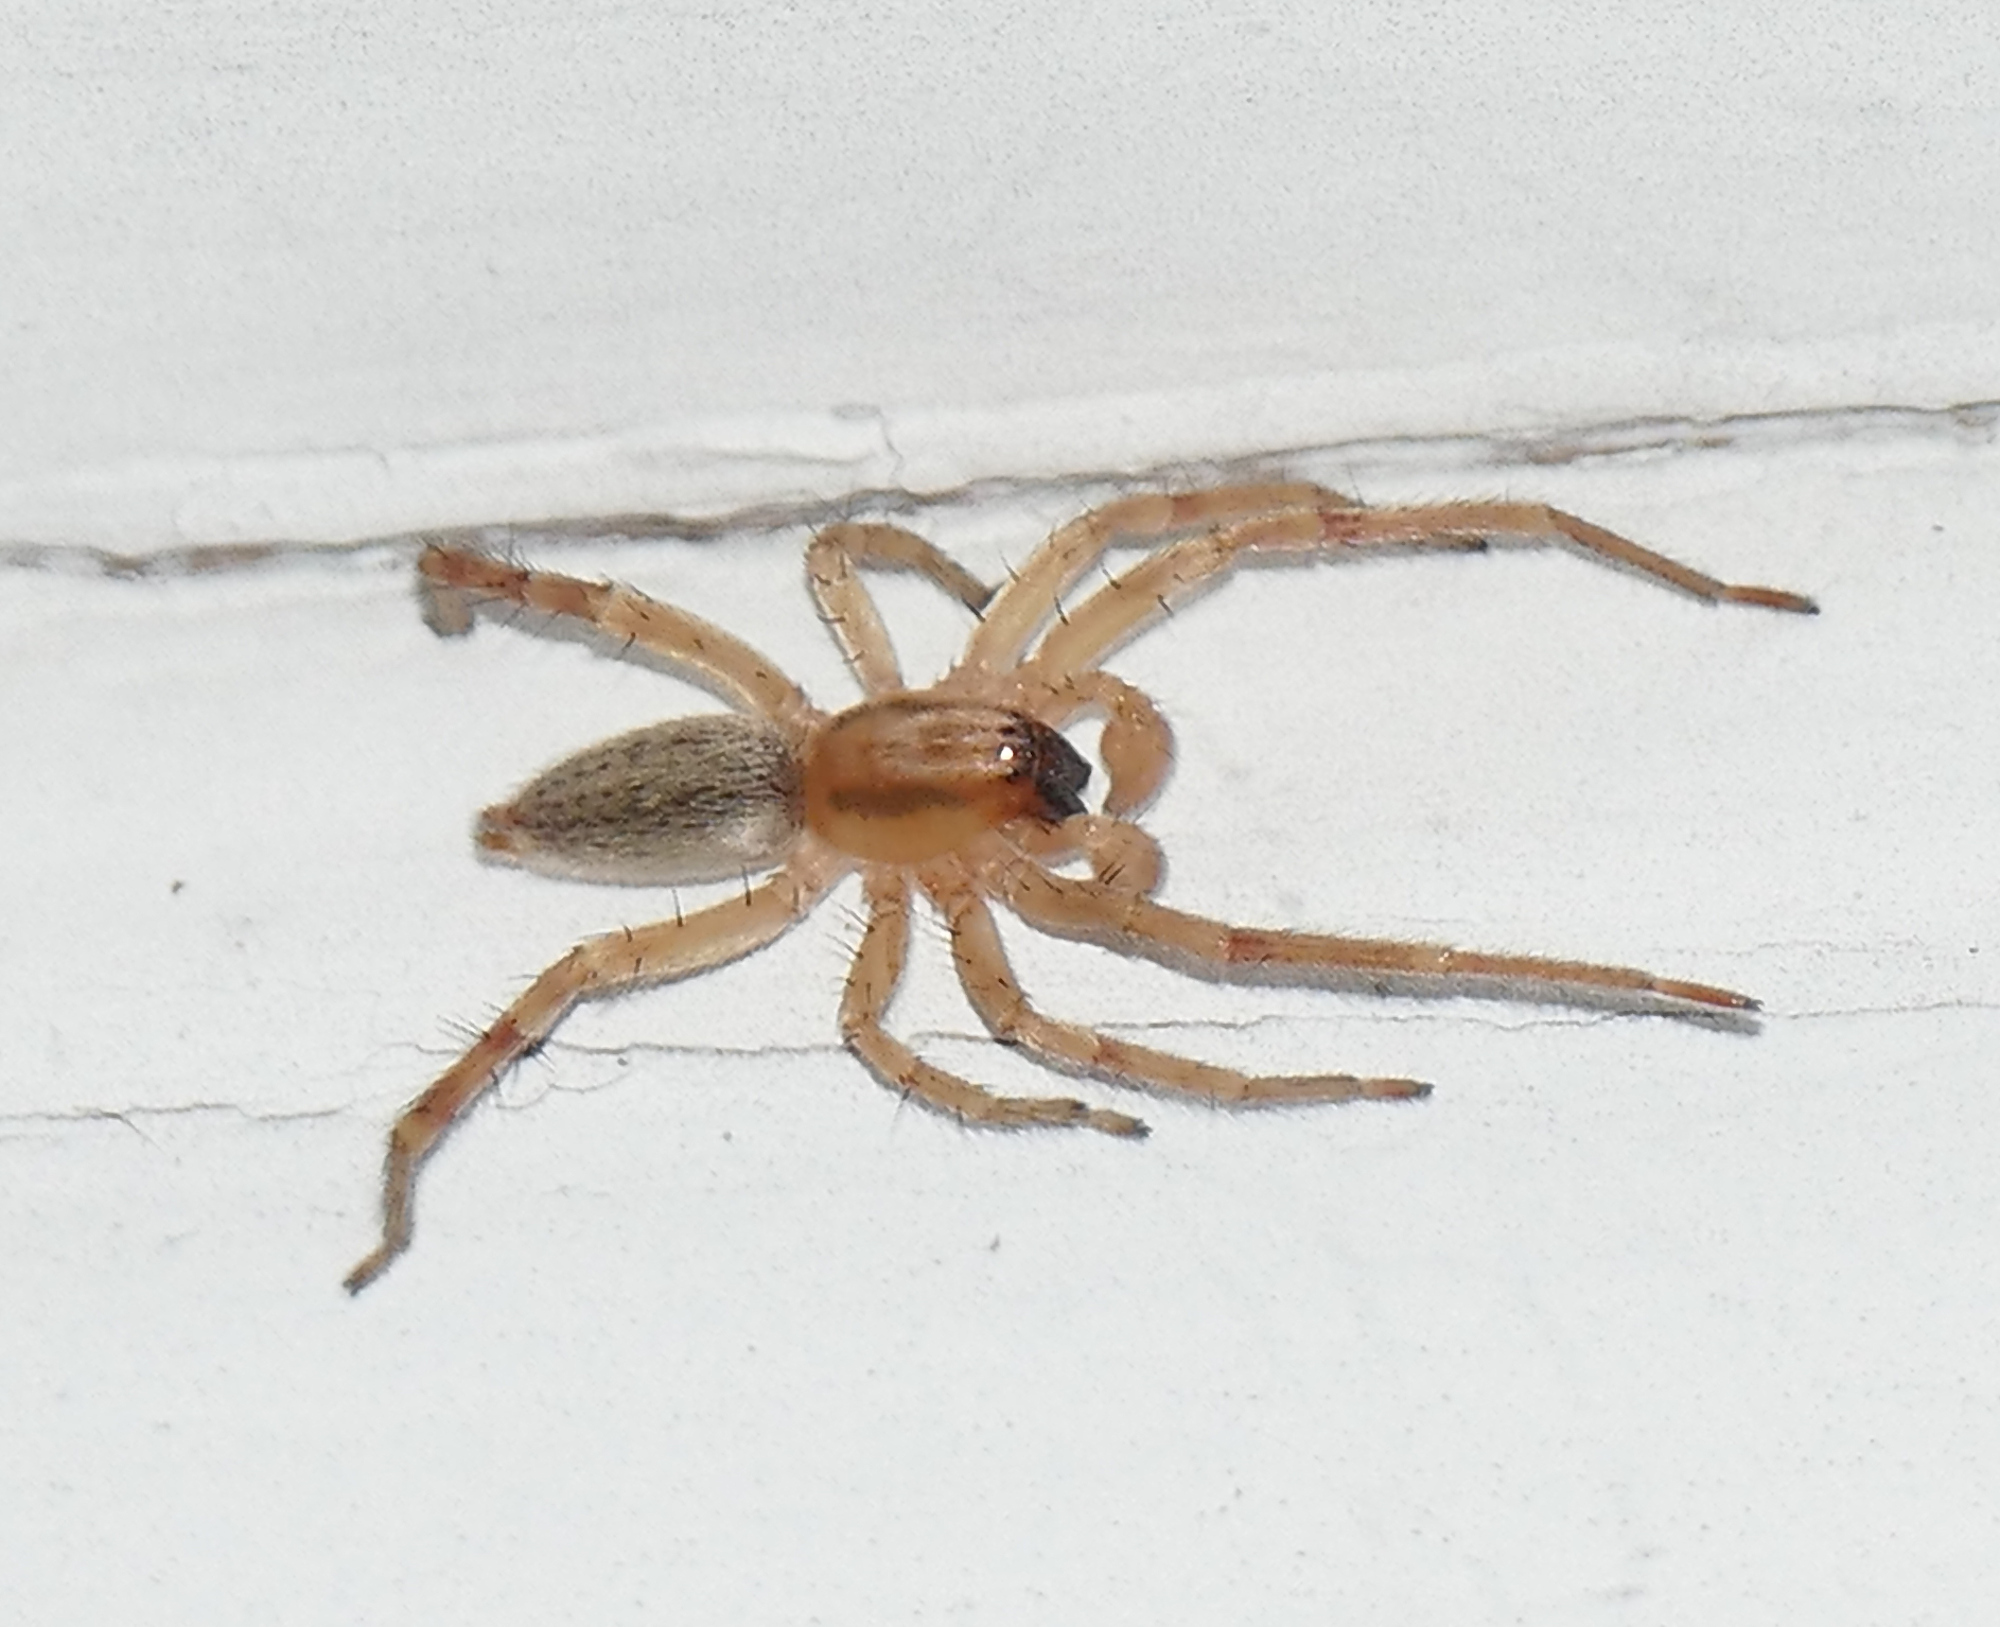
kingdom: Animalia
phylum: Arthropoda
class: Arachnida
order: Araneae
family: Anyphaenidae
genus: Hibana
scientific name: Hibana gracilis
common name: Garden ghost spider
